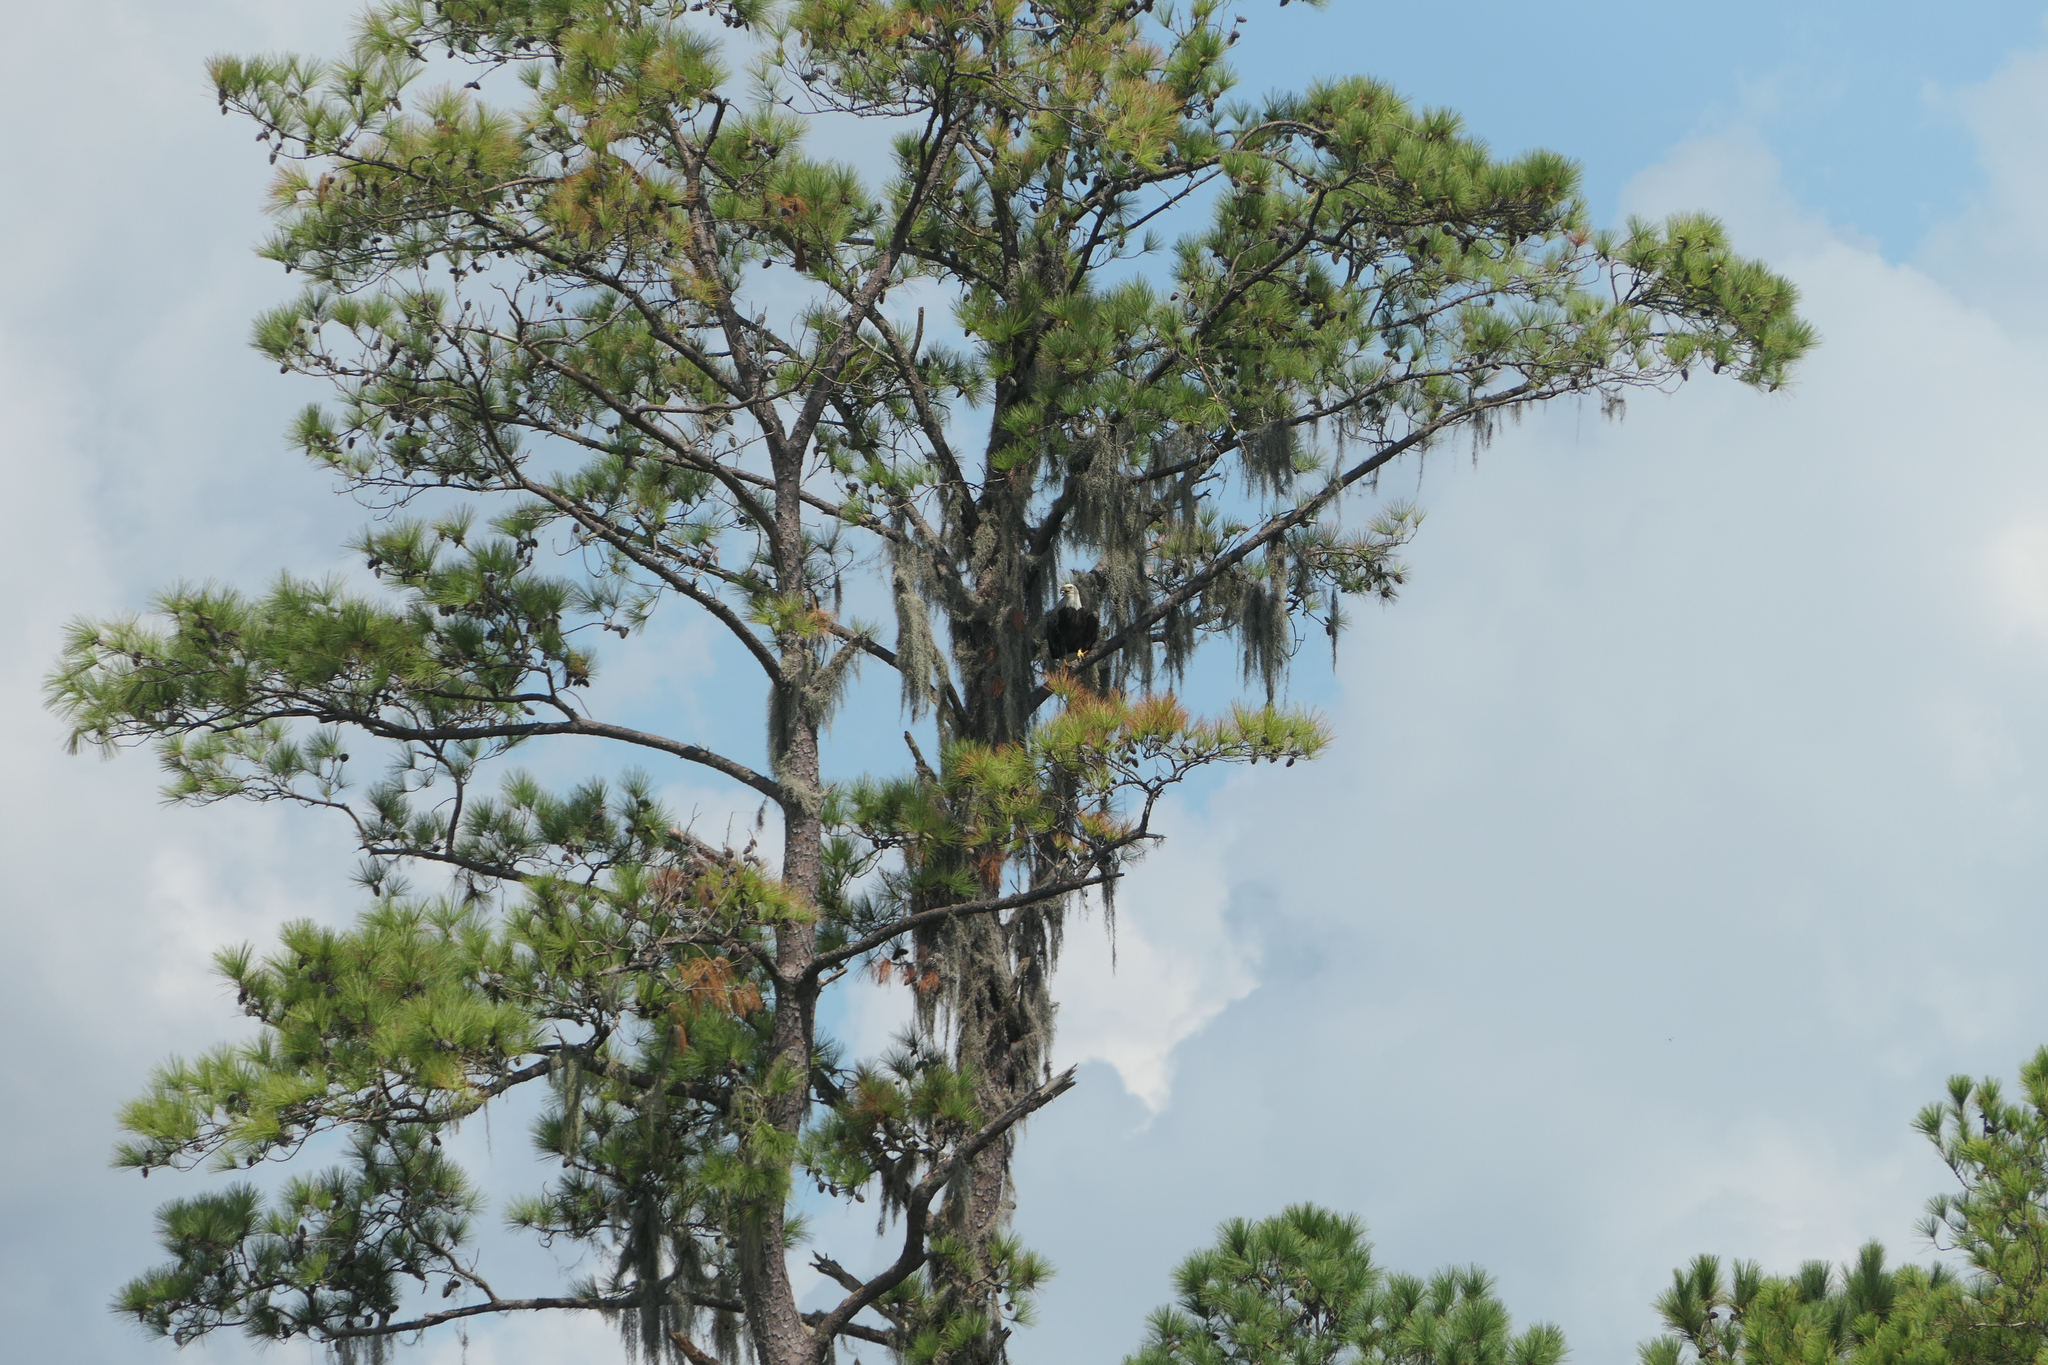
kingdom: Animalia
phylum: Chordata
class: Aves
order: Accipitriformes
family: Accipitridae
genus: Haliaeetus
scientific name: Haliaeetus leucocephalus
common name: Bald eagle
